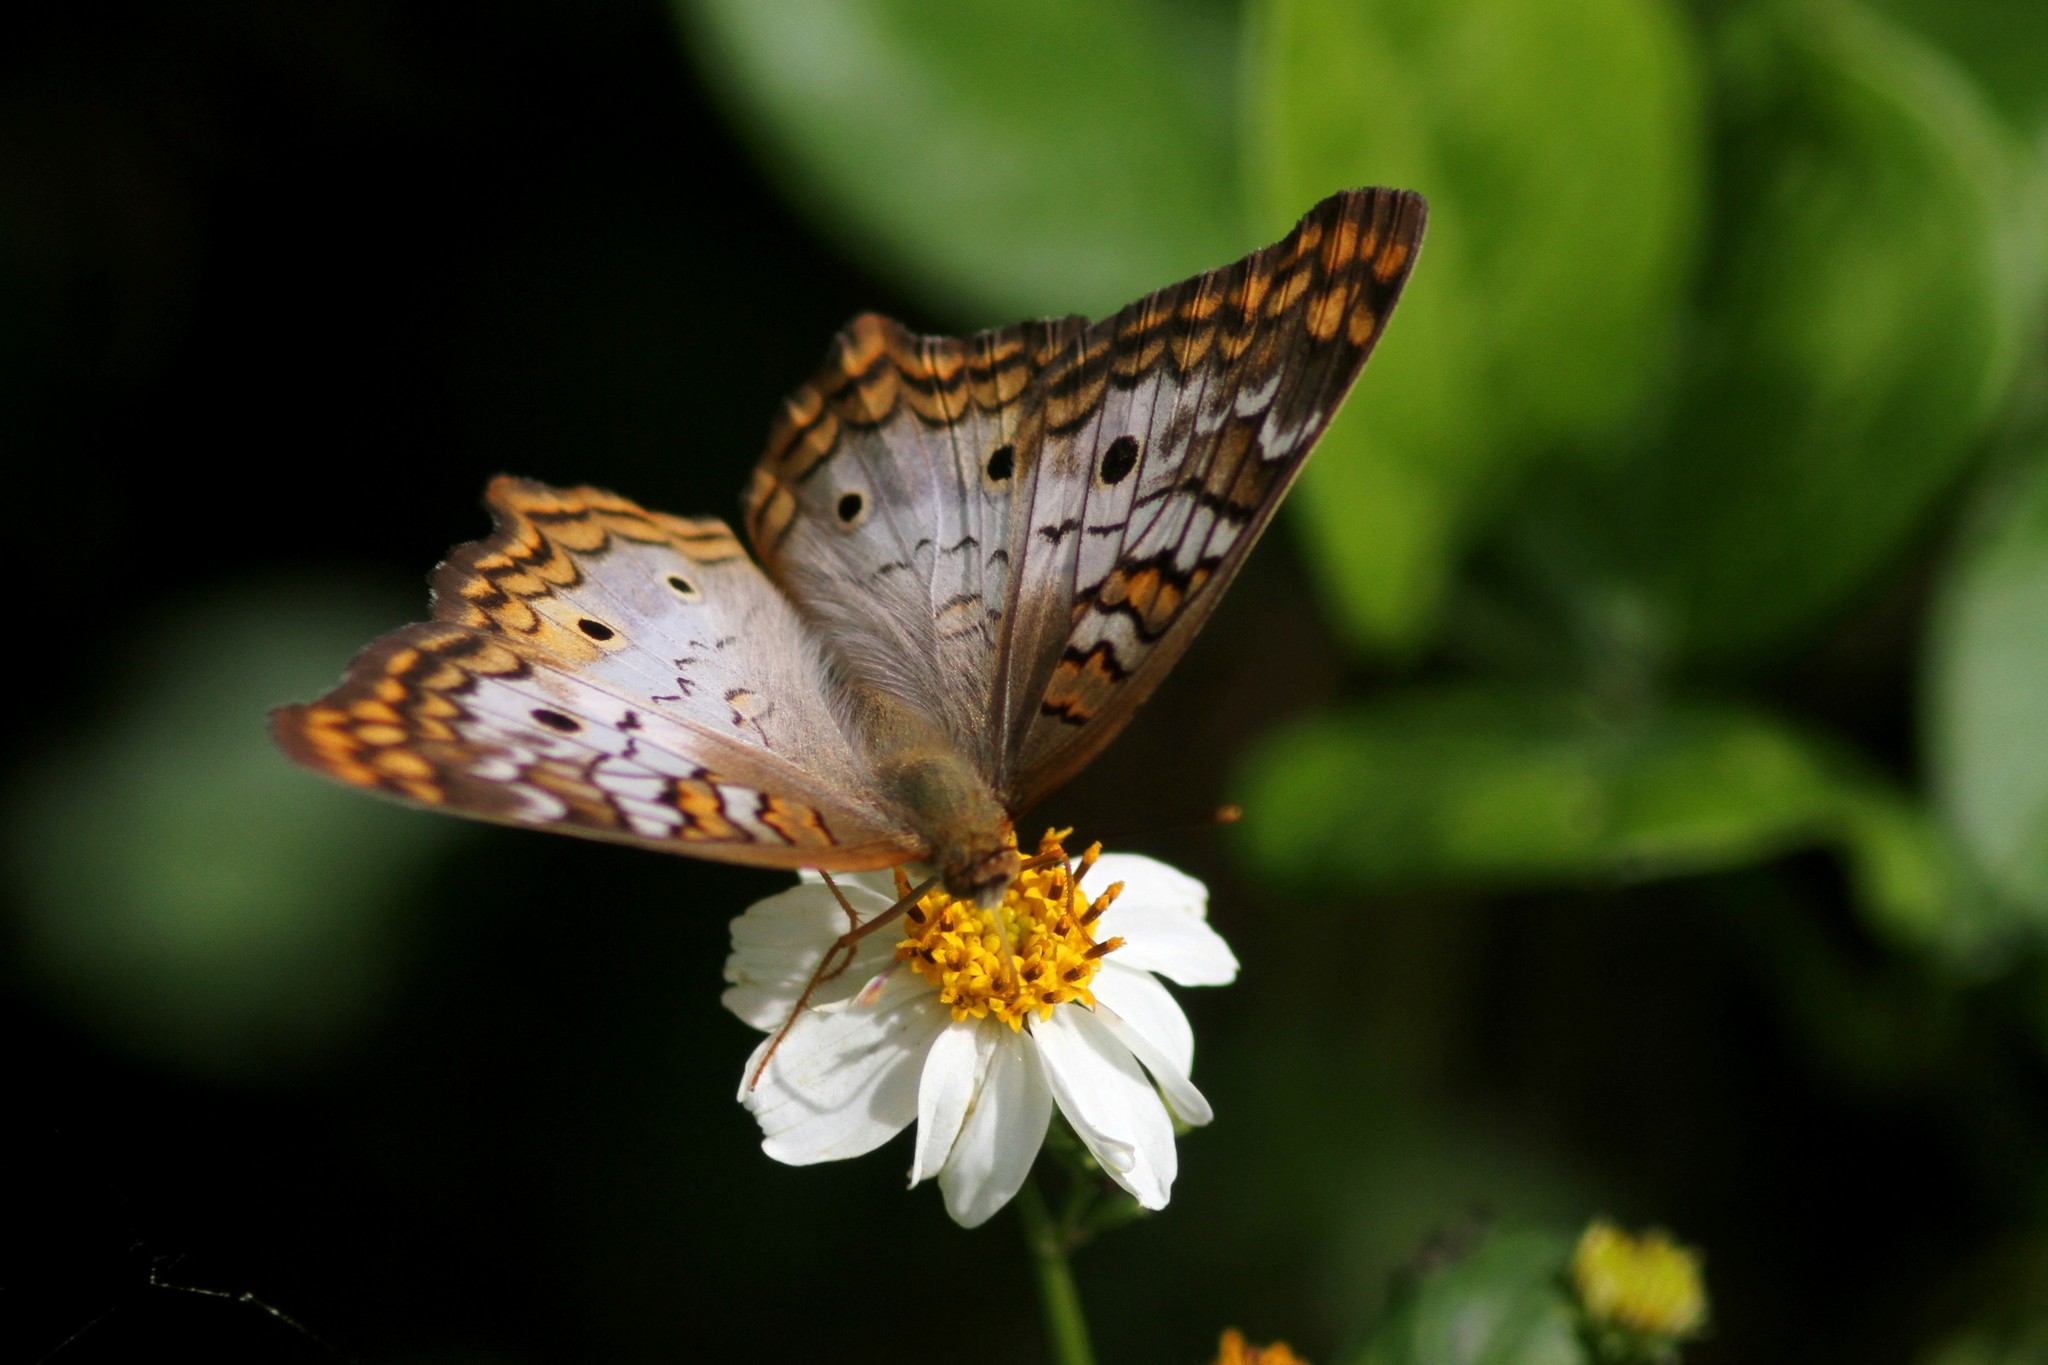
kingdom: Animalia
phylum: Arthropoda
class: Insecta
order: Lepidoptera
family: Nymphalidae
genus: Anartia
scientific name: Anartia jatrophae
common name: White peacock
